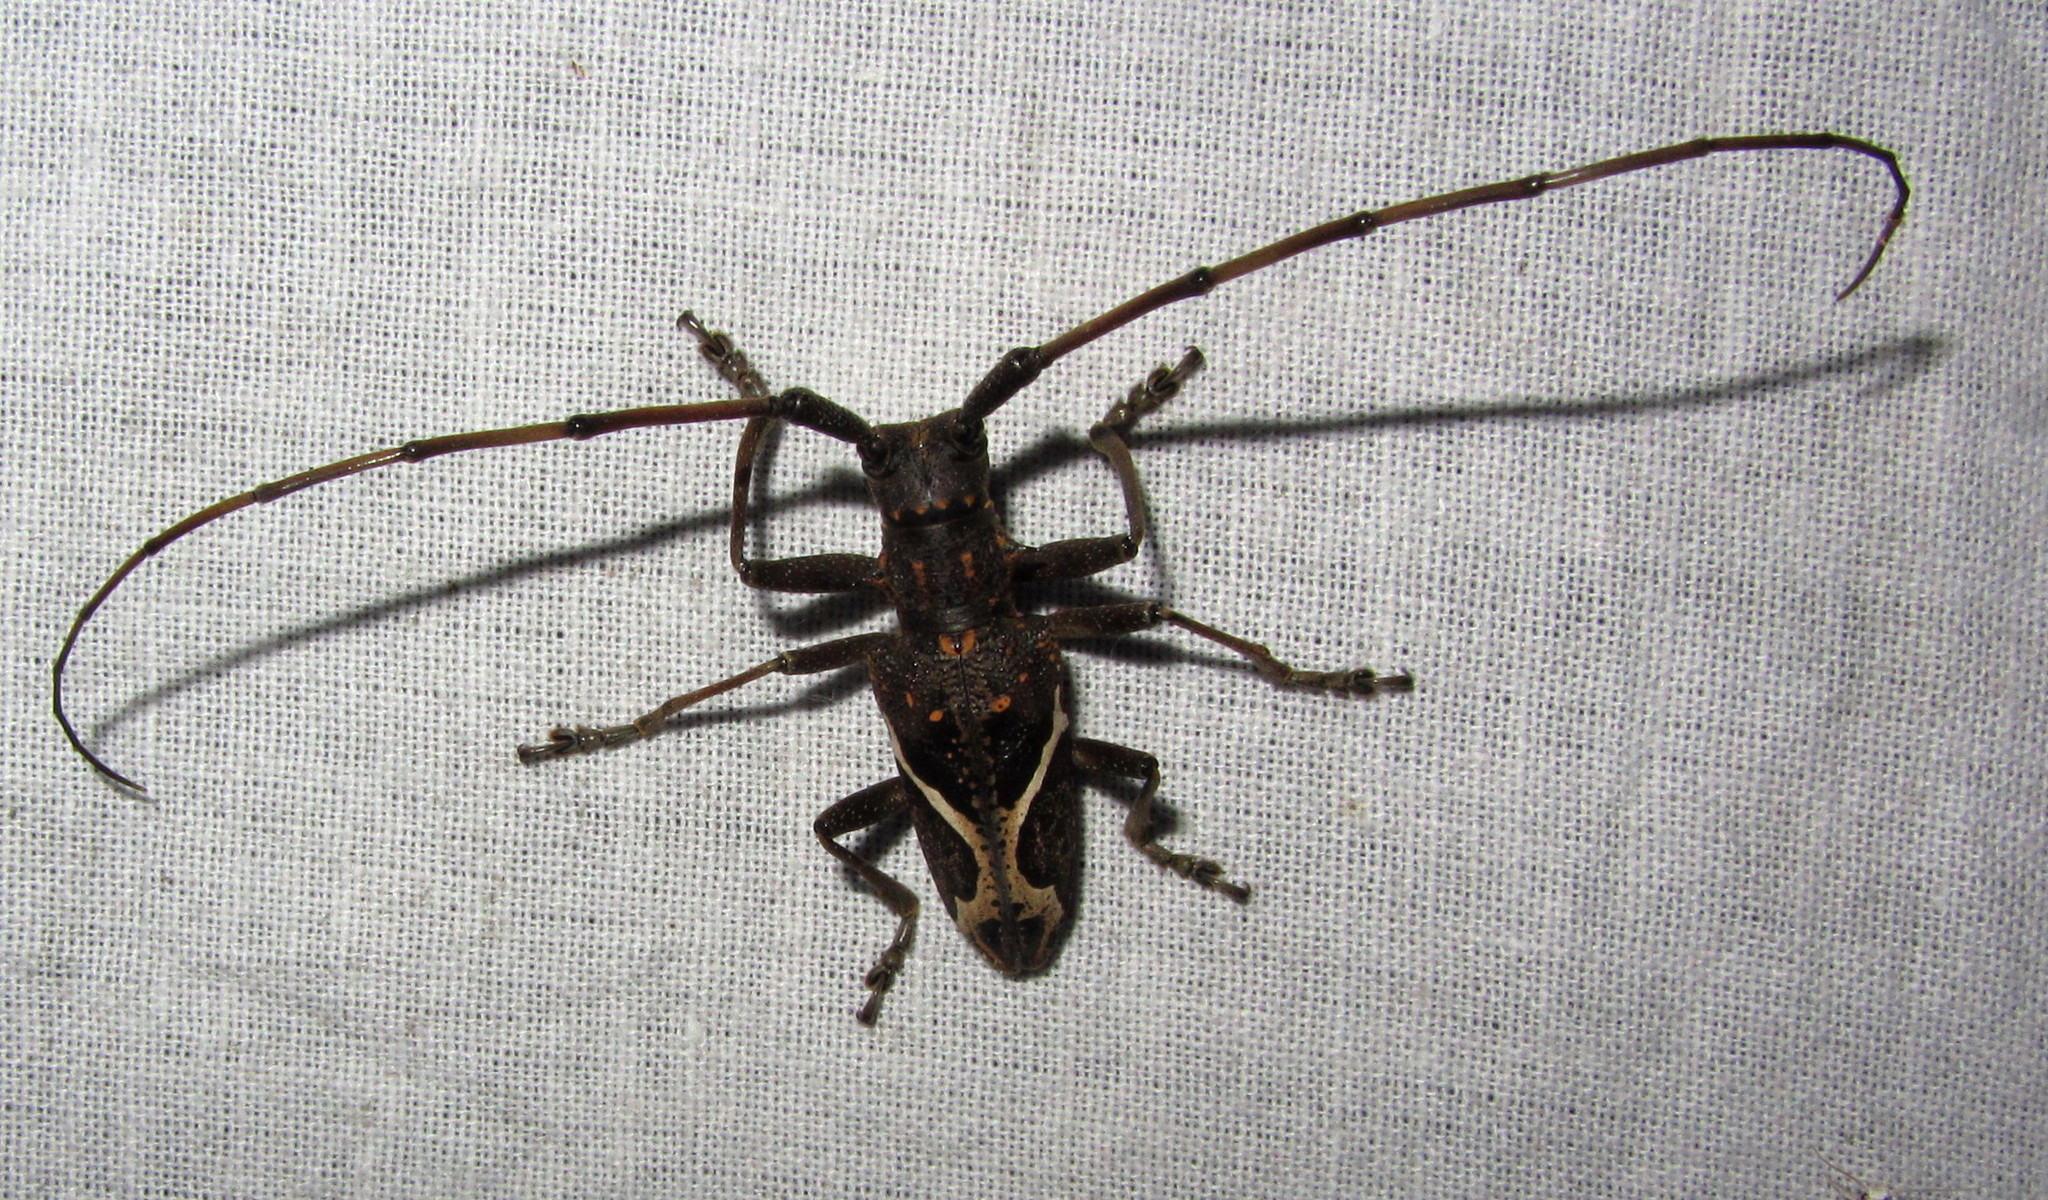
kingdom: Animalia
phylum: Arthropoda
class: Insecta
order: Coleoptera
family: Cerambycidae
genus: Paraleprodera
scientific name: Paraleprodera stephanus
